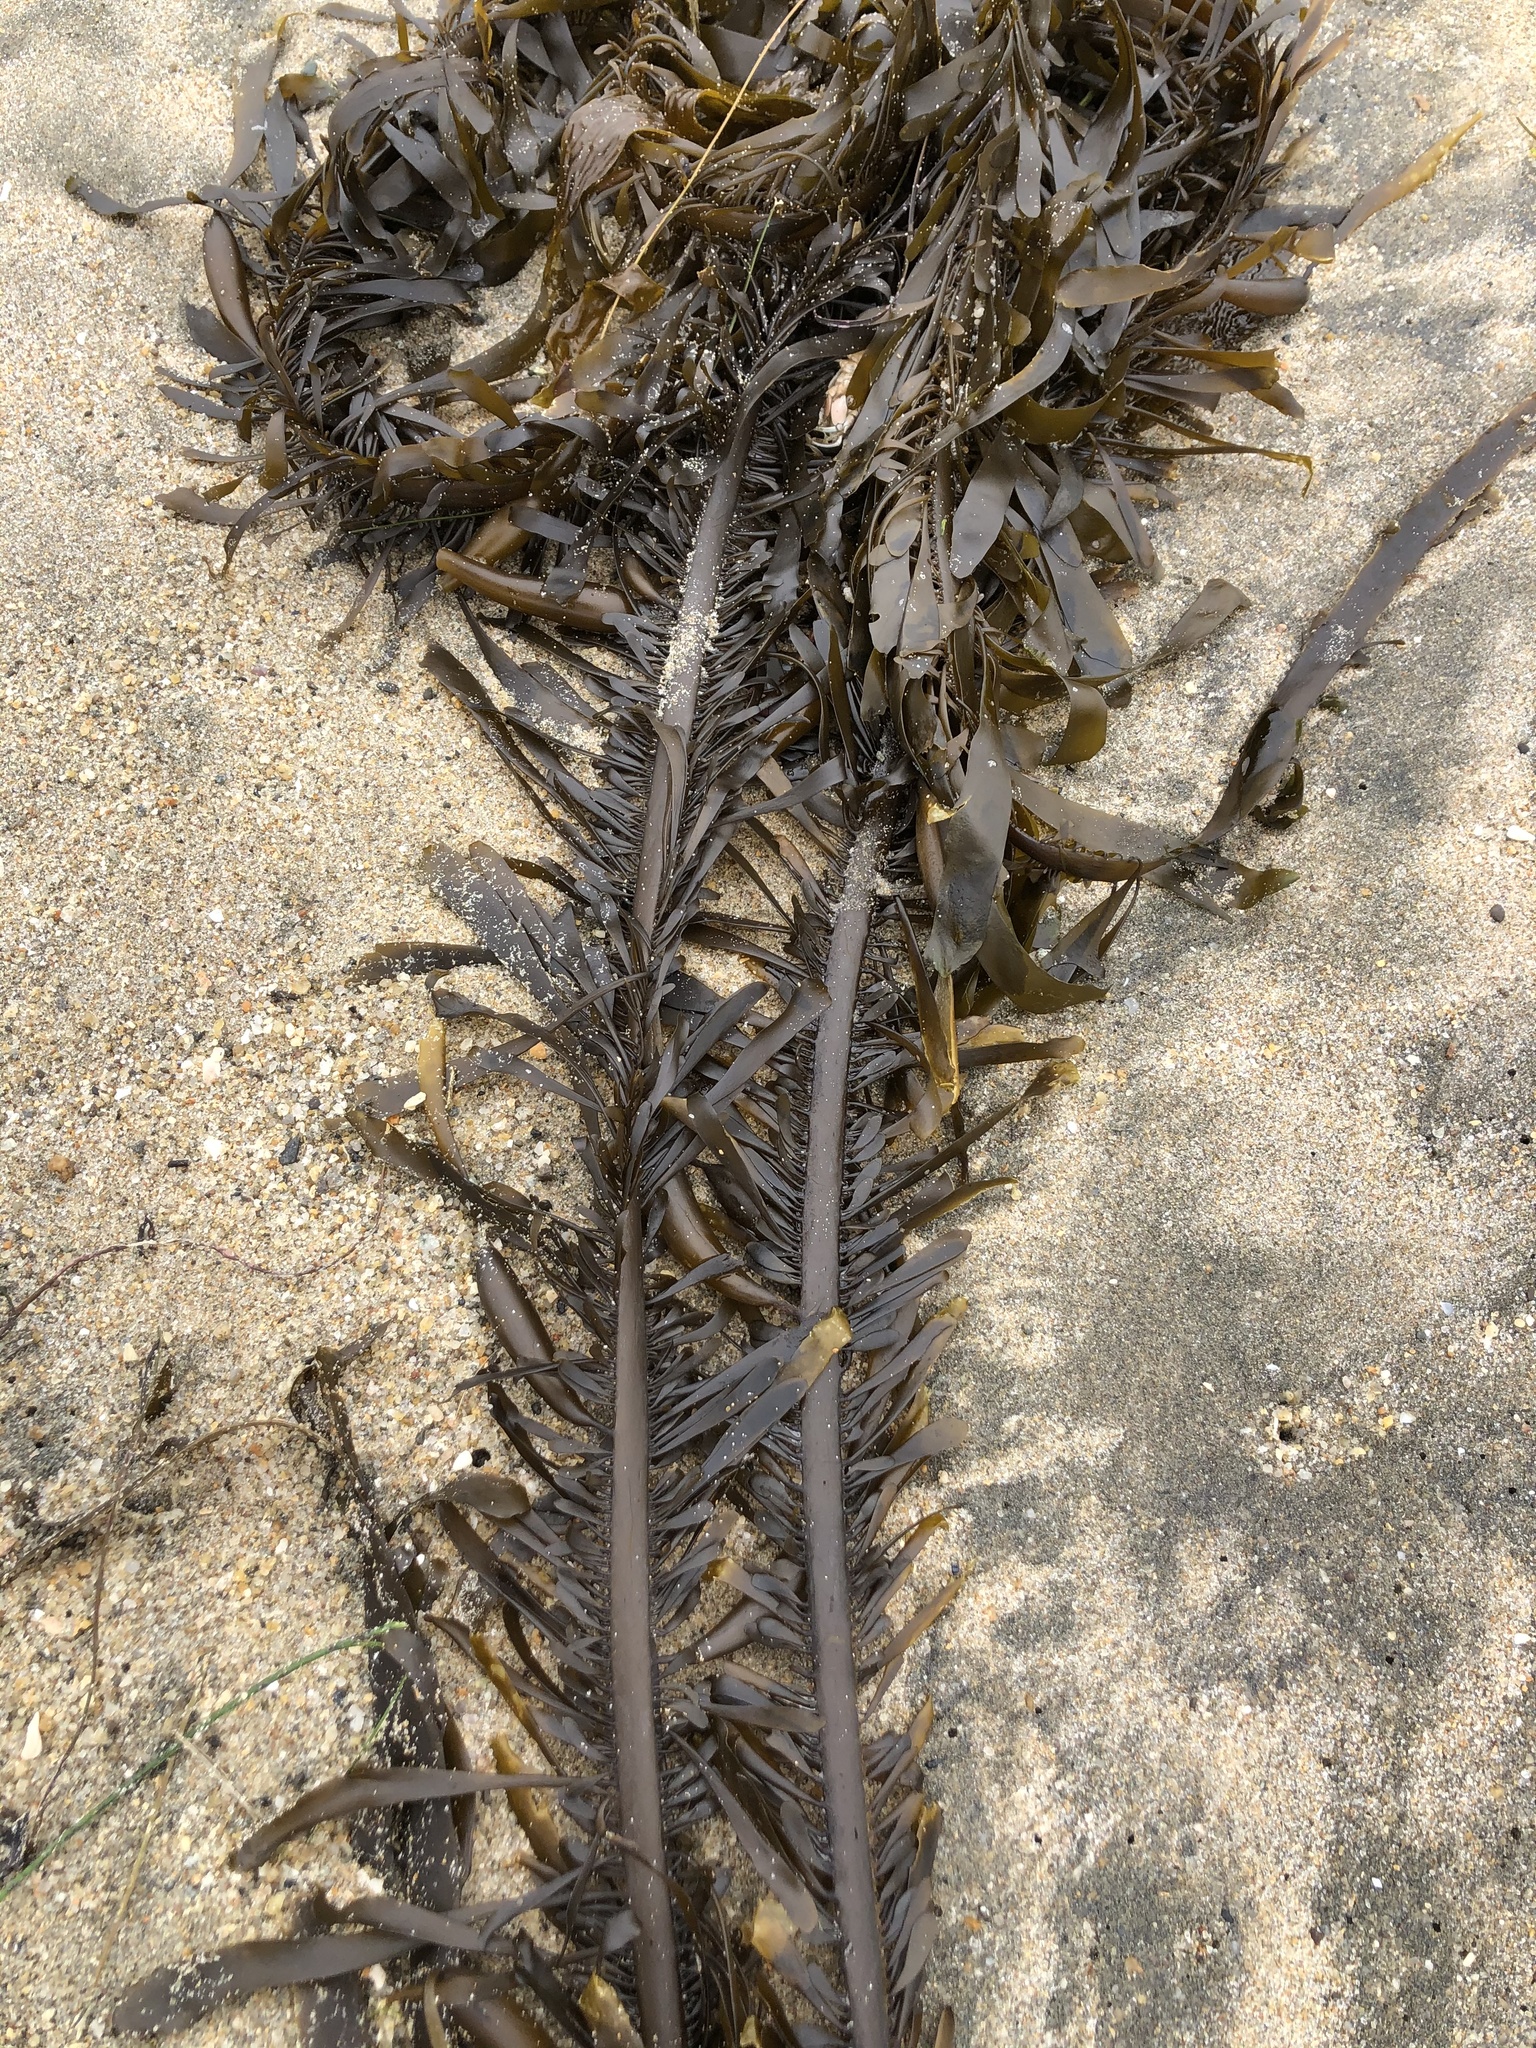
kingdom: Chromista
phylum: Ochrophyta
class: Phaeophyceae
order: Laminariales
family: Lessoniaceae
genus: Egregia
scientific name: Egregia menziesii
